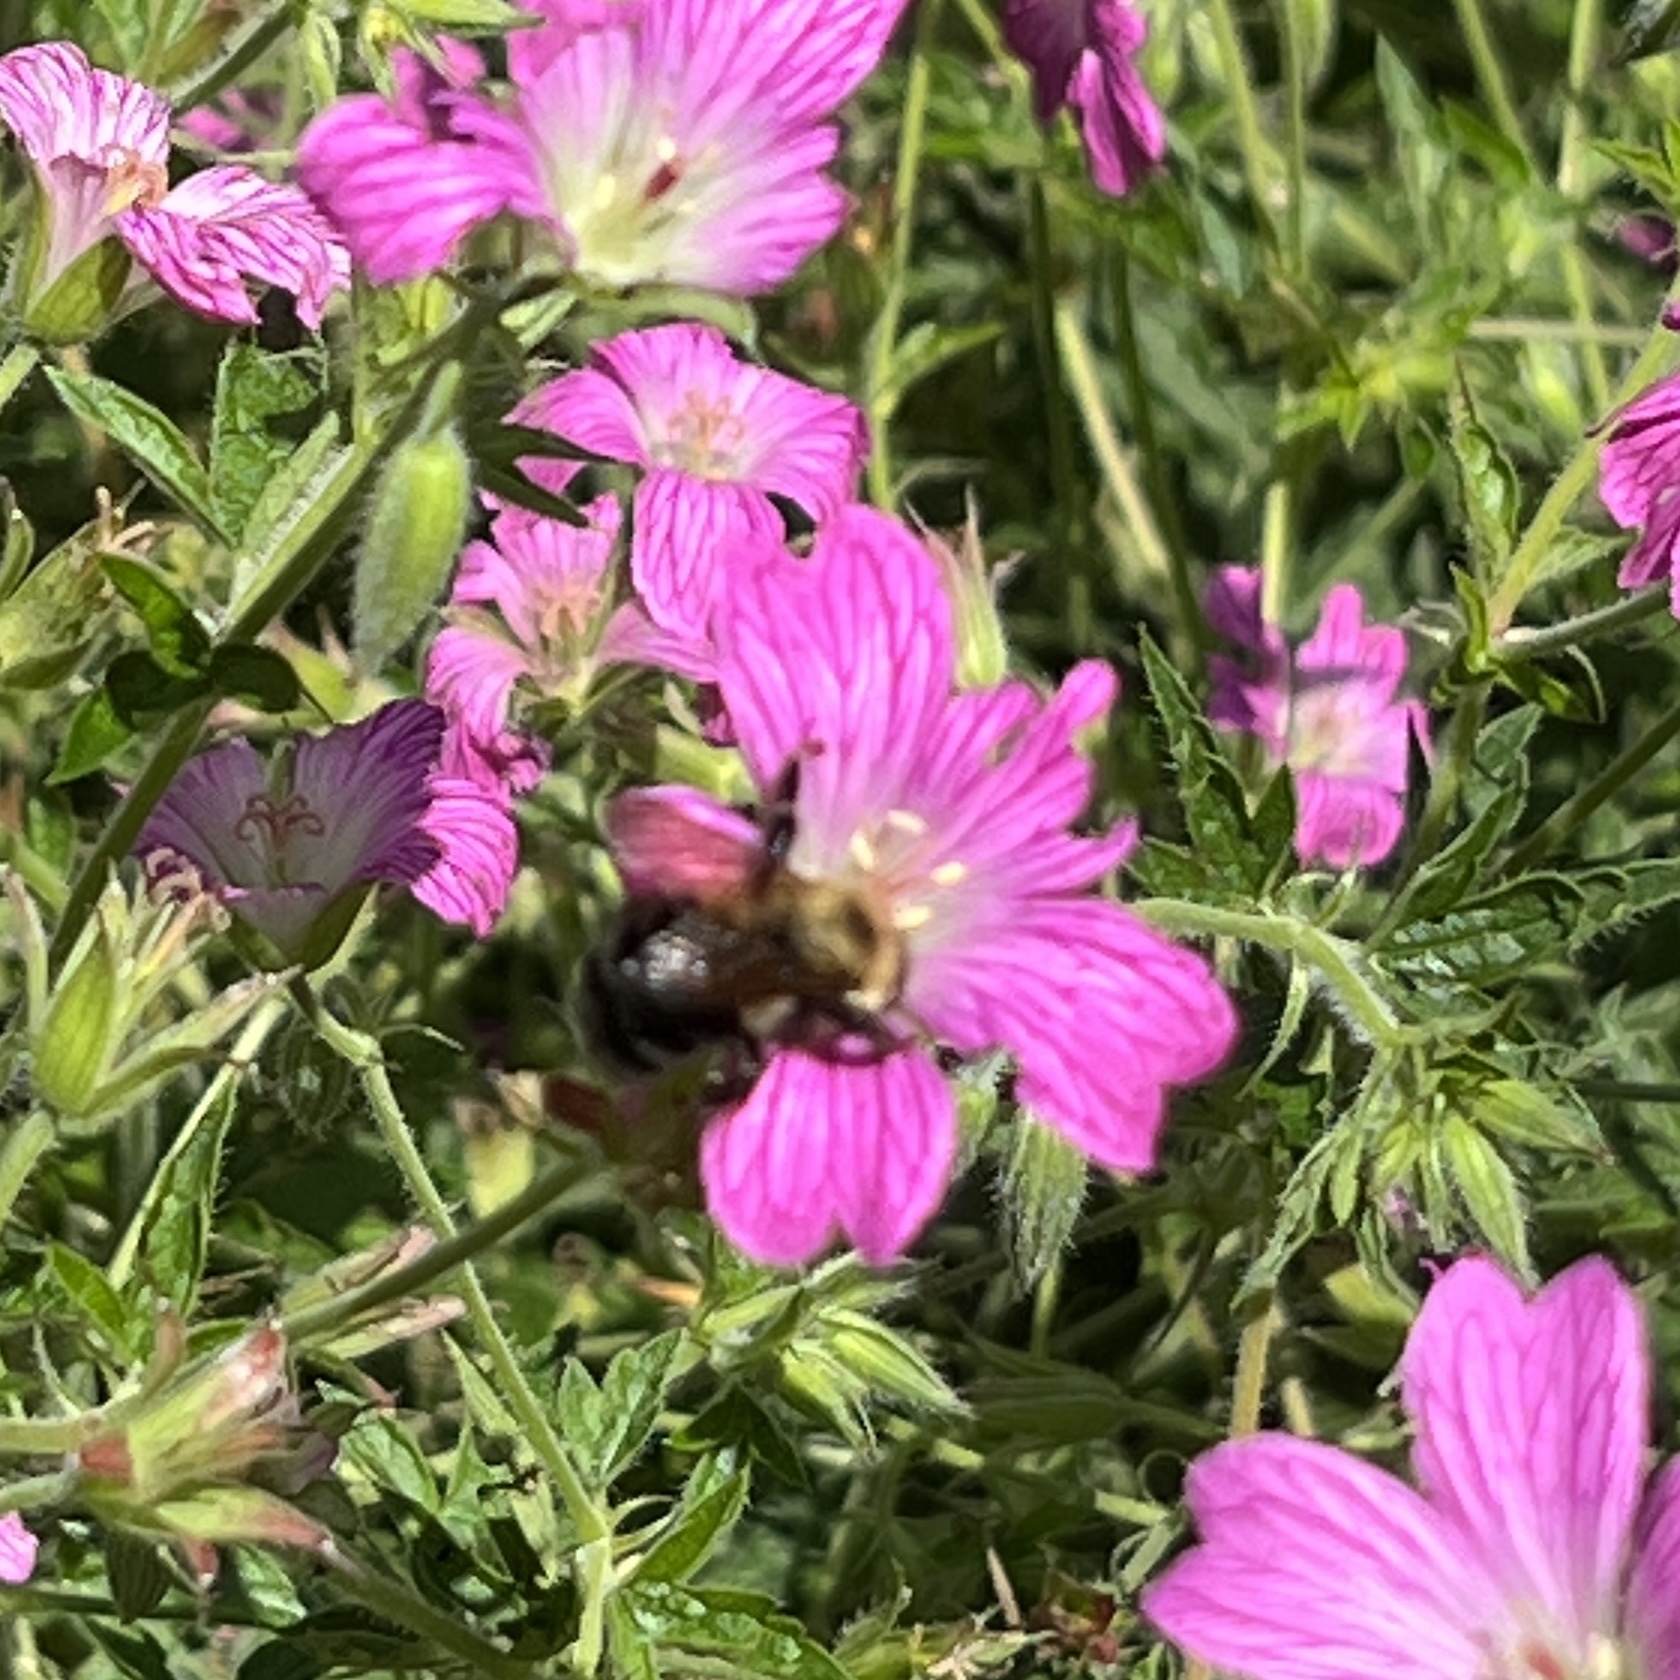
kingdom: Animalia
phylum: Arthropoda
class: Insecta
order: Hymenoptera
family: Apidae
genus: Bombus
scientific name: Bombus bimaculatus
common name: Two-spotted bumble bee
